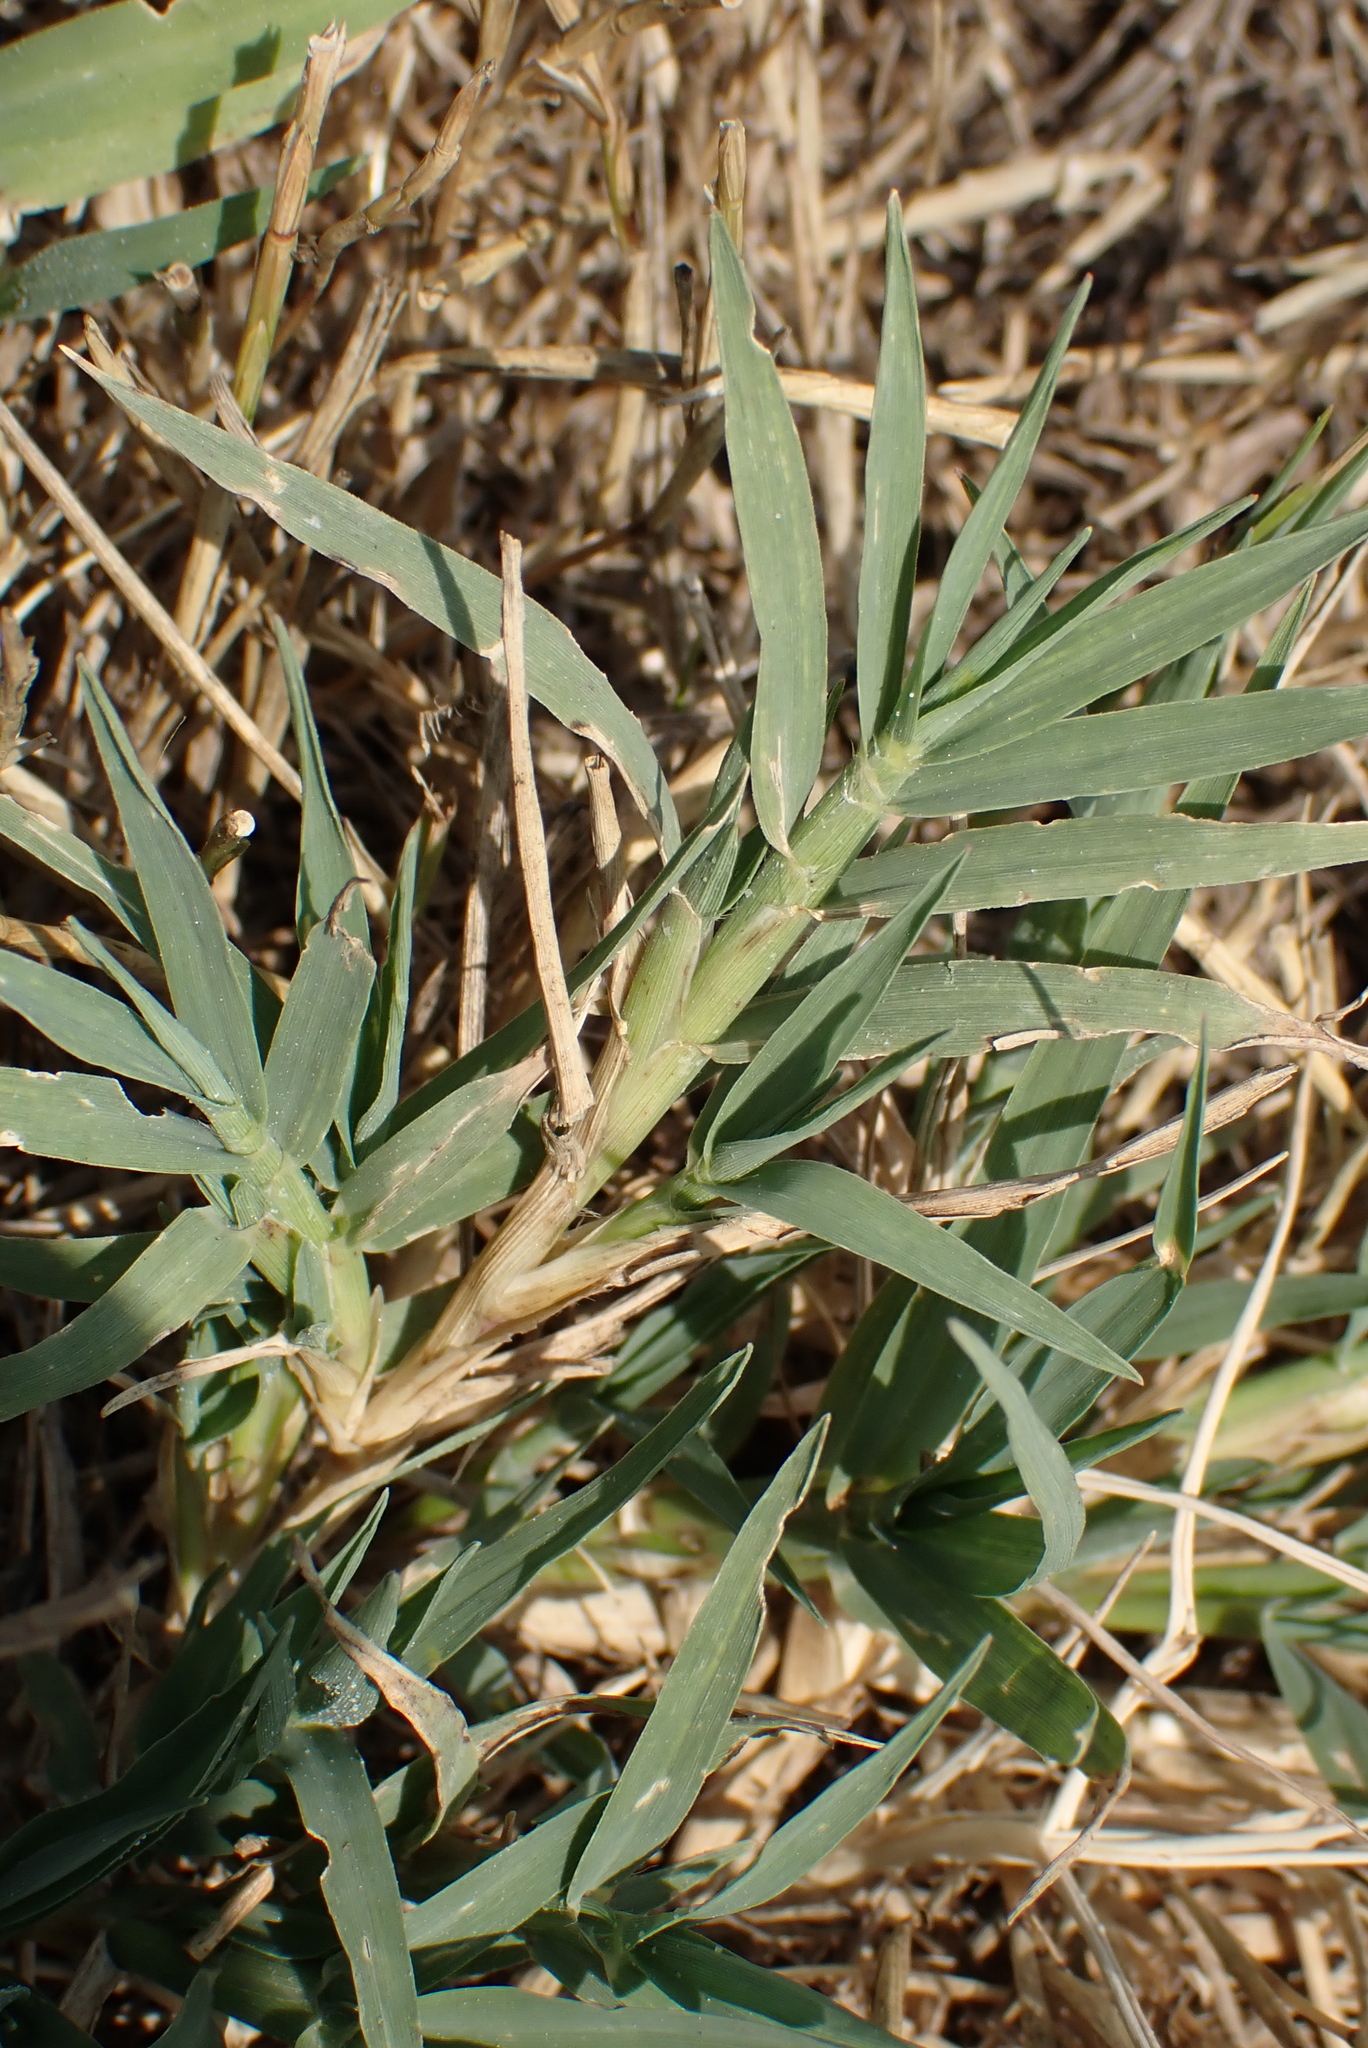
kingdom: Plantae
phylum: Tracheophyta
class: Liliopsida
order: Poales
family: Poaceae
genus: Cynodon
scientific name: Cynodon dactylon
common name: Bermuda grass
